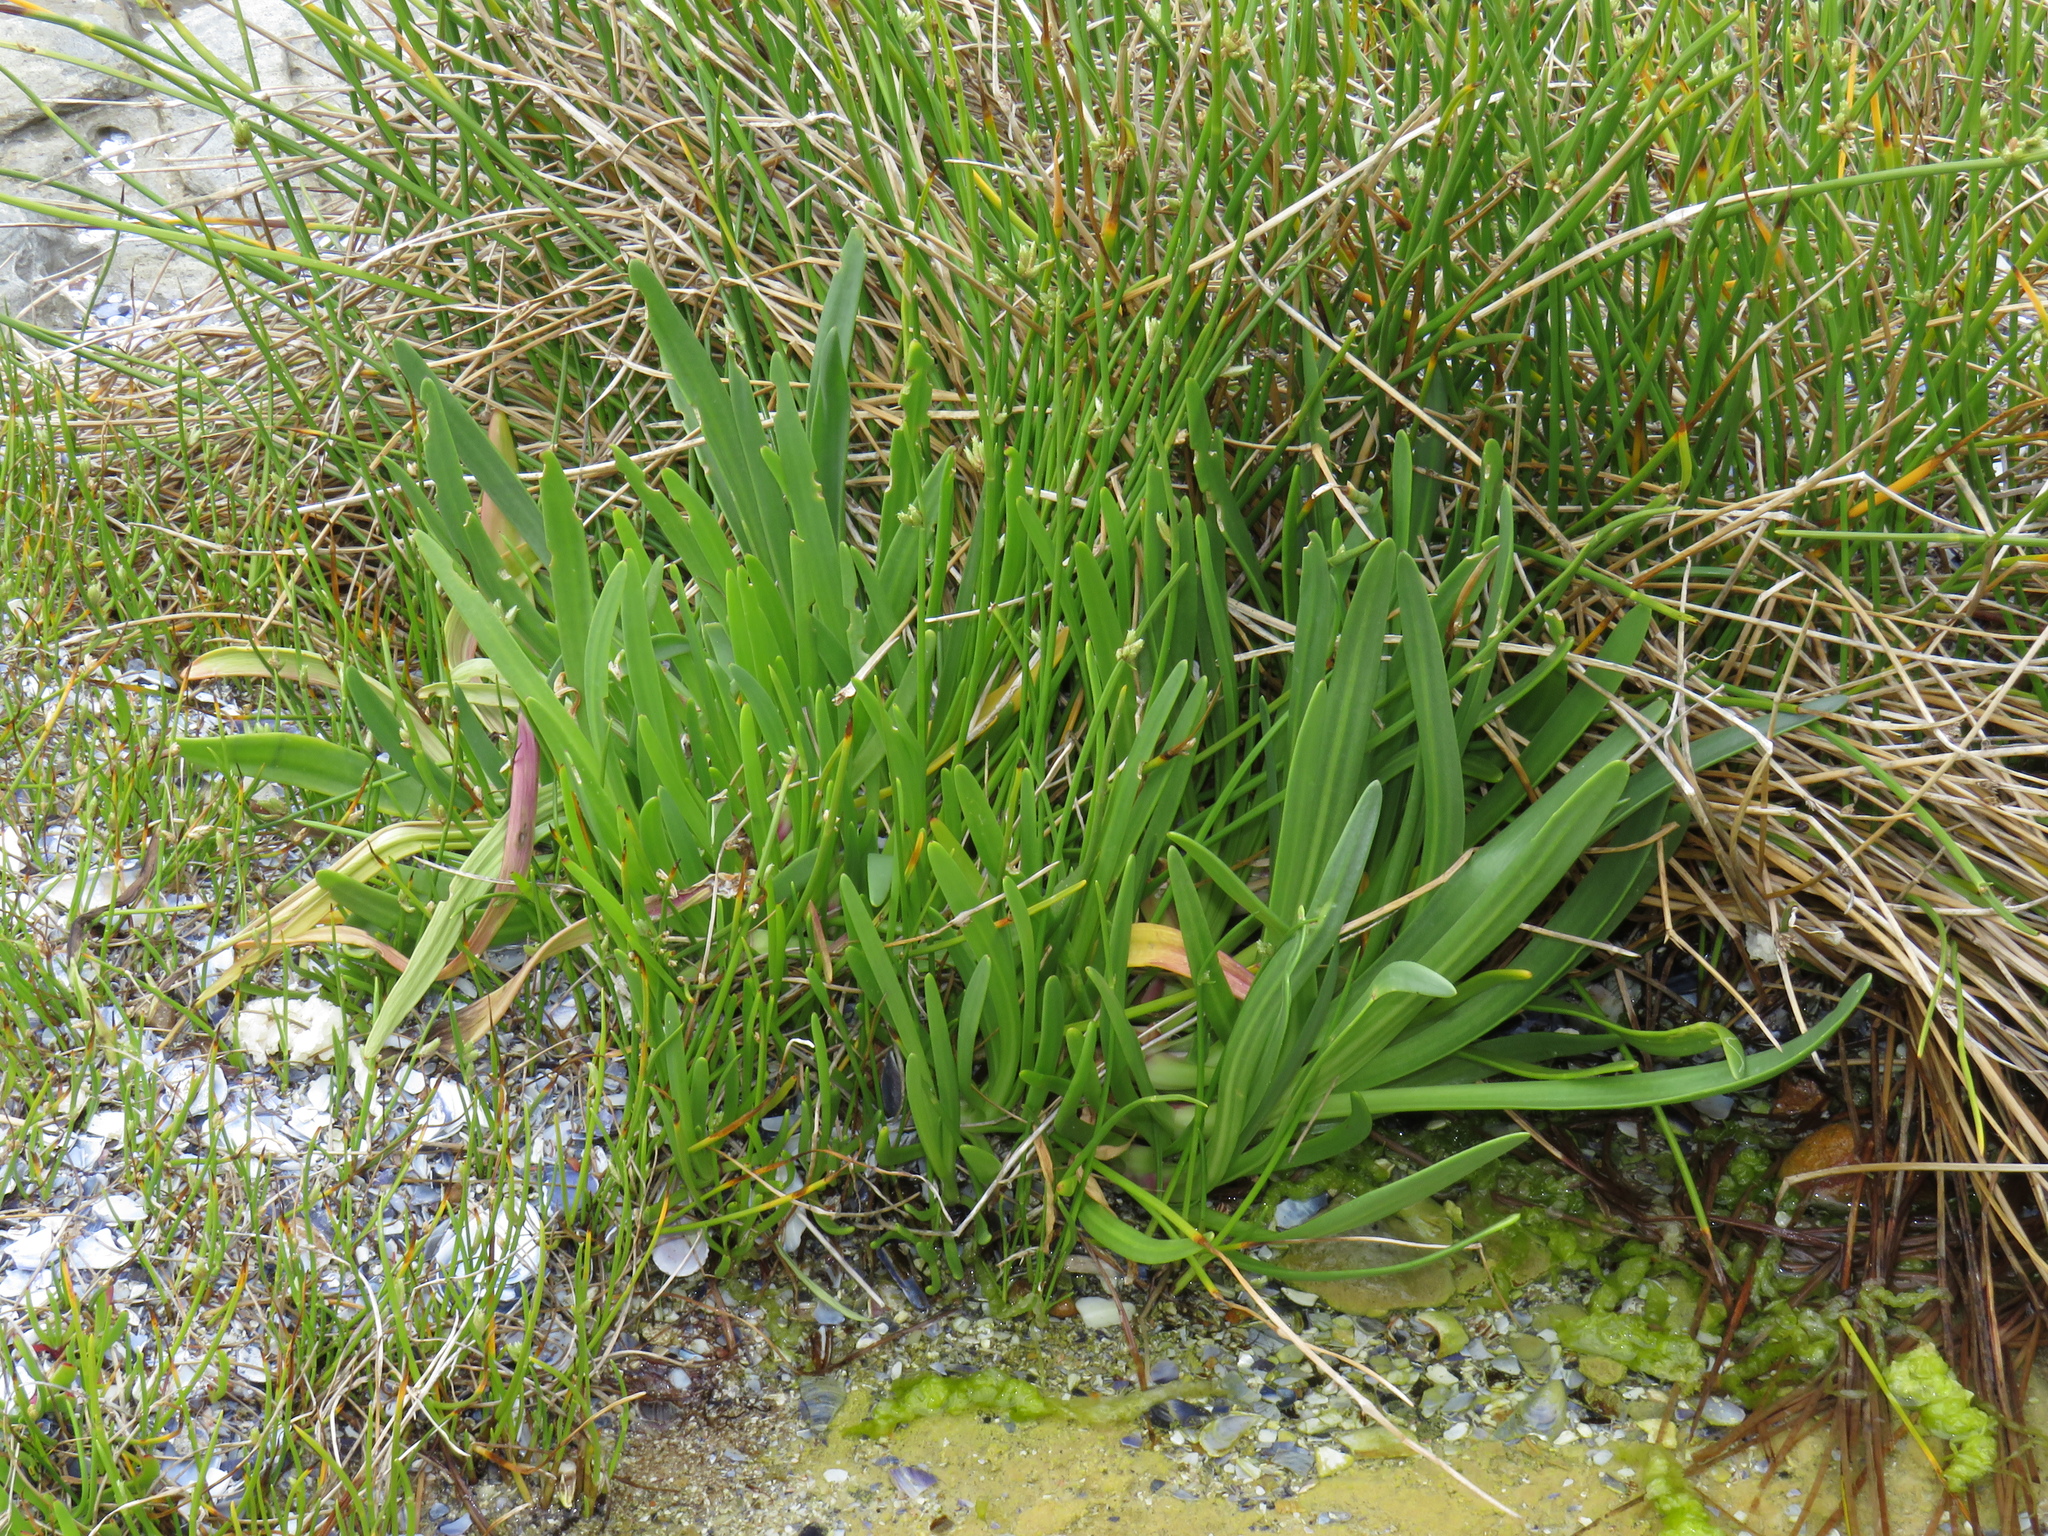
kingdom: Plantae
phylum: Tracheophyta
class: Magnoliopsida
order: Lamiales
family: Plantaginaceae
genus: Plantago
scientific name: Plantago carnosa
